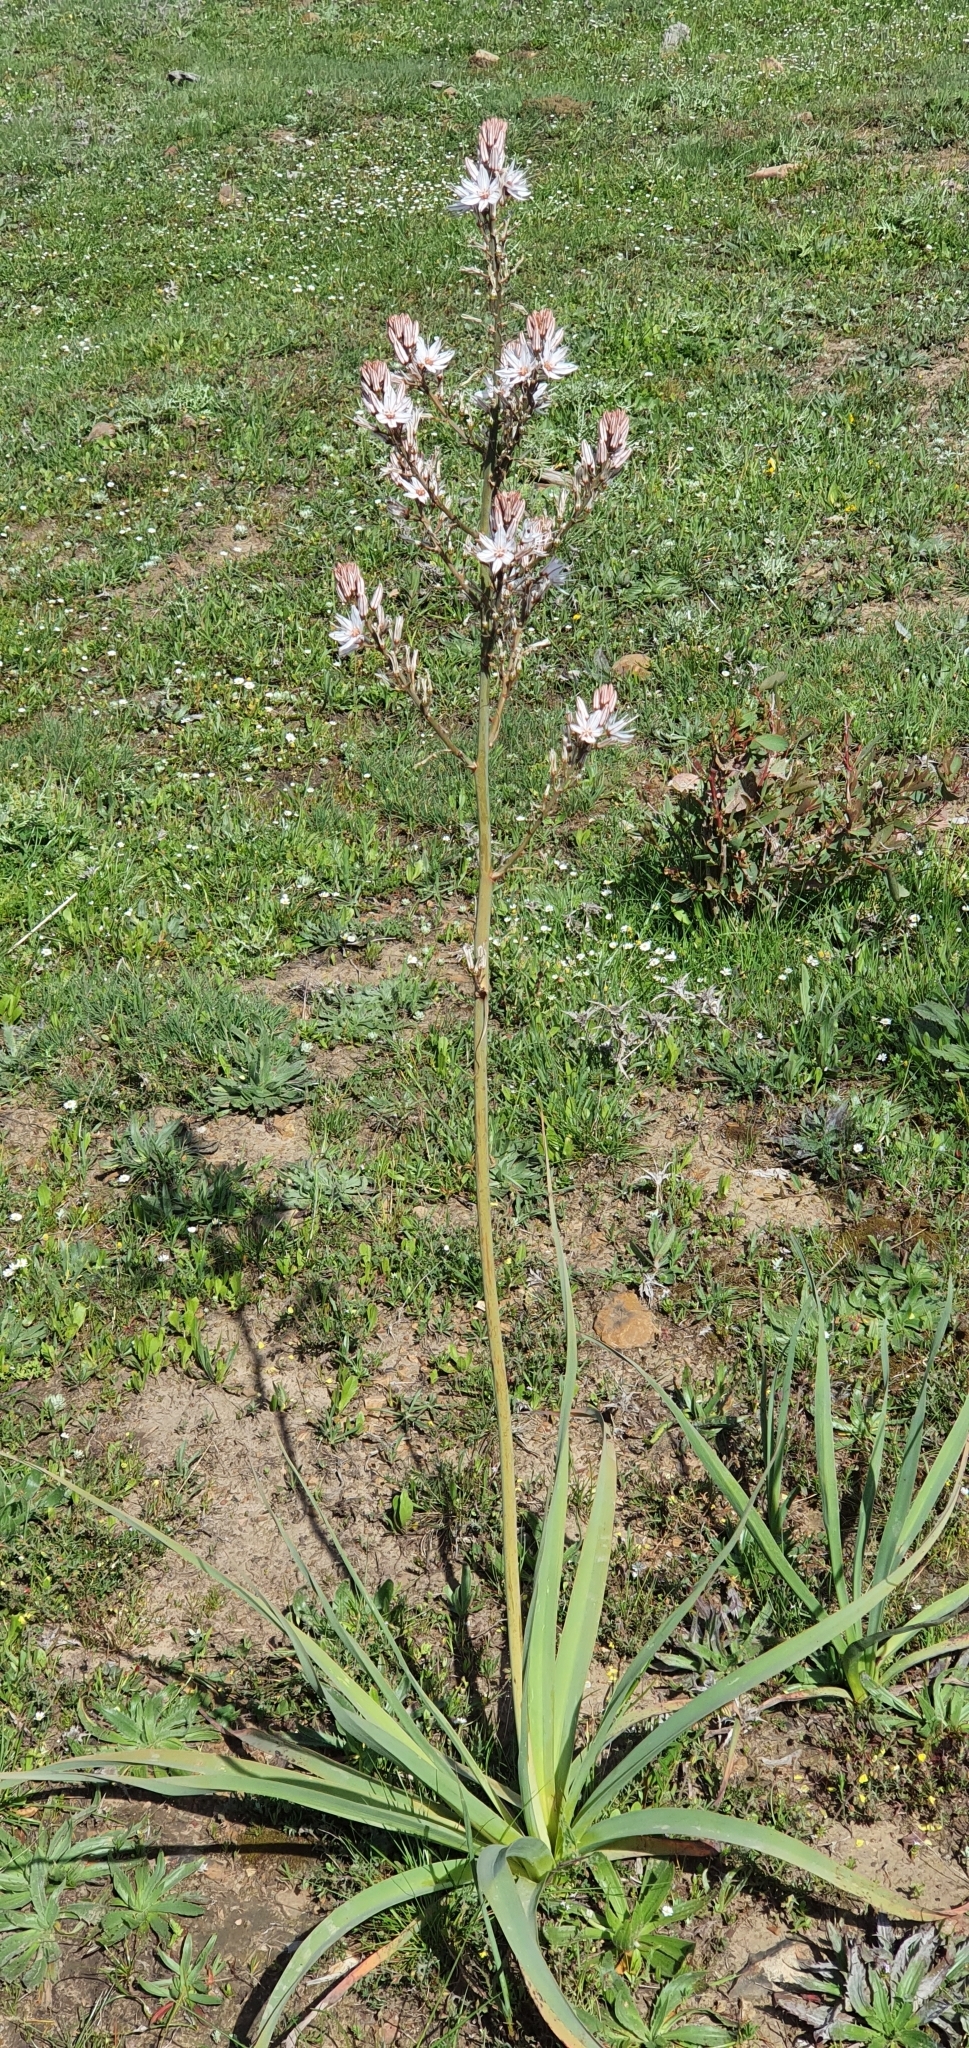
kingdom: Plantae
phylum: Tracheophyta
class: Liliopsida
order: Asparagales
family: Asphodelaceae
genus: Asphodelus
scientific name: Asphodelus ramosus
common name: Silverrod
